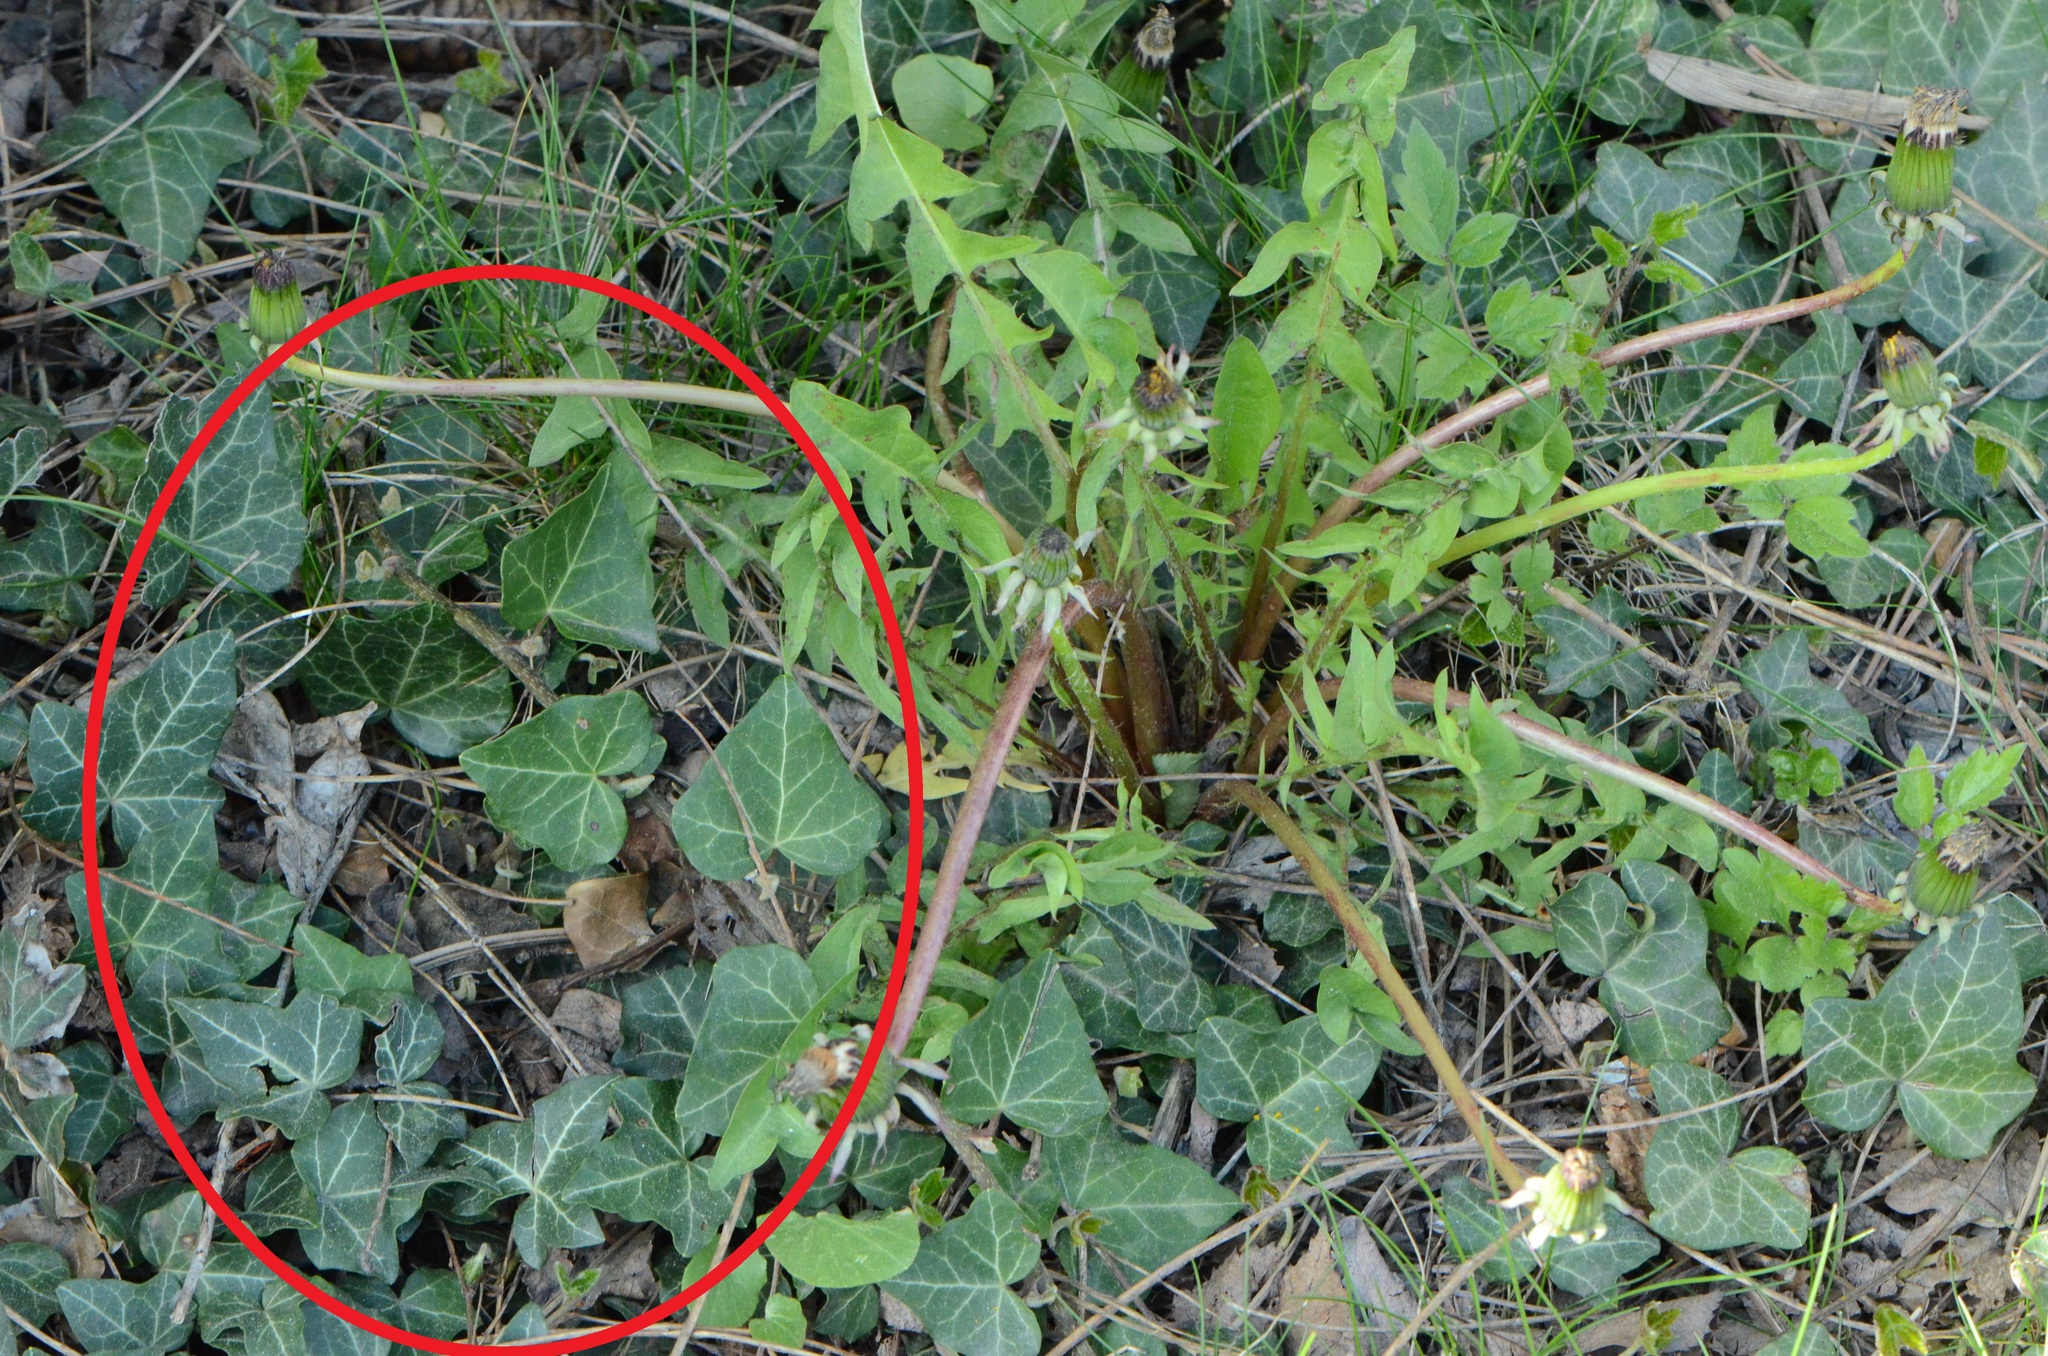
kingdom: Plantae
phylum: Tracheophyta
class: Magnoliopsida
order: Apiales
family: Araliaceae
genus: Hedera
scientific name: Hedera helix
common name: Ivy
